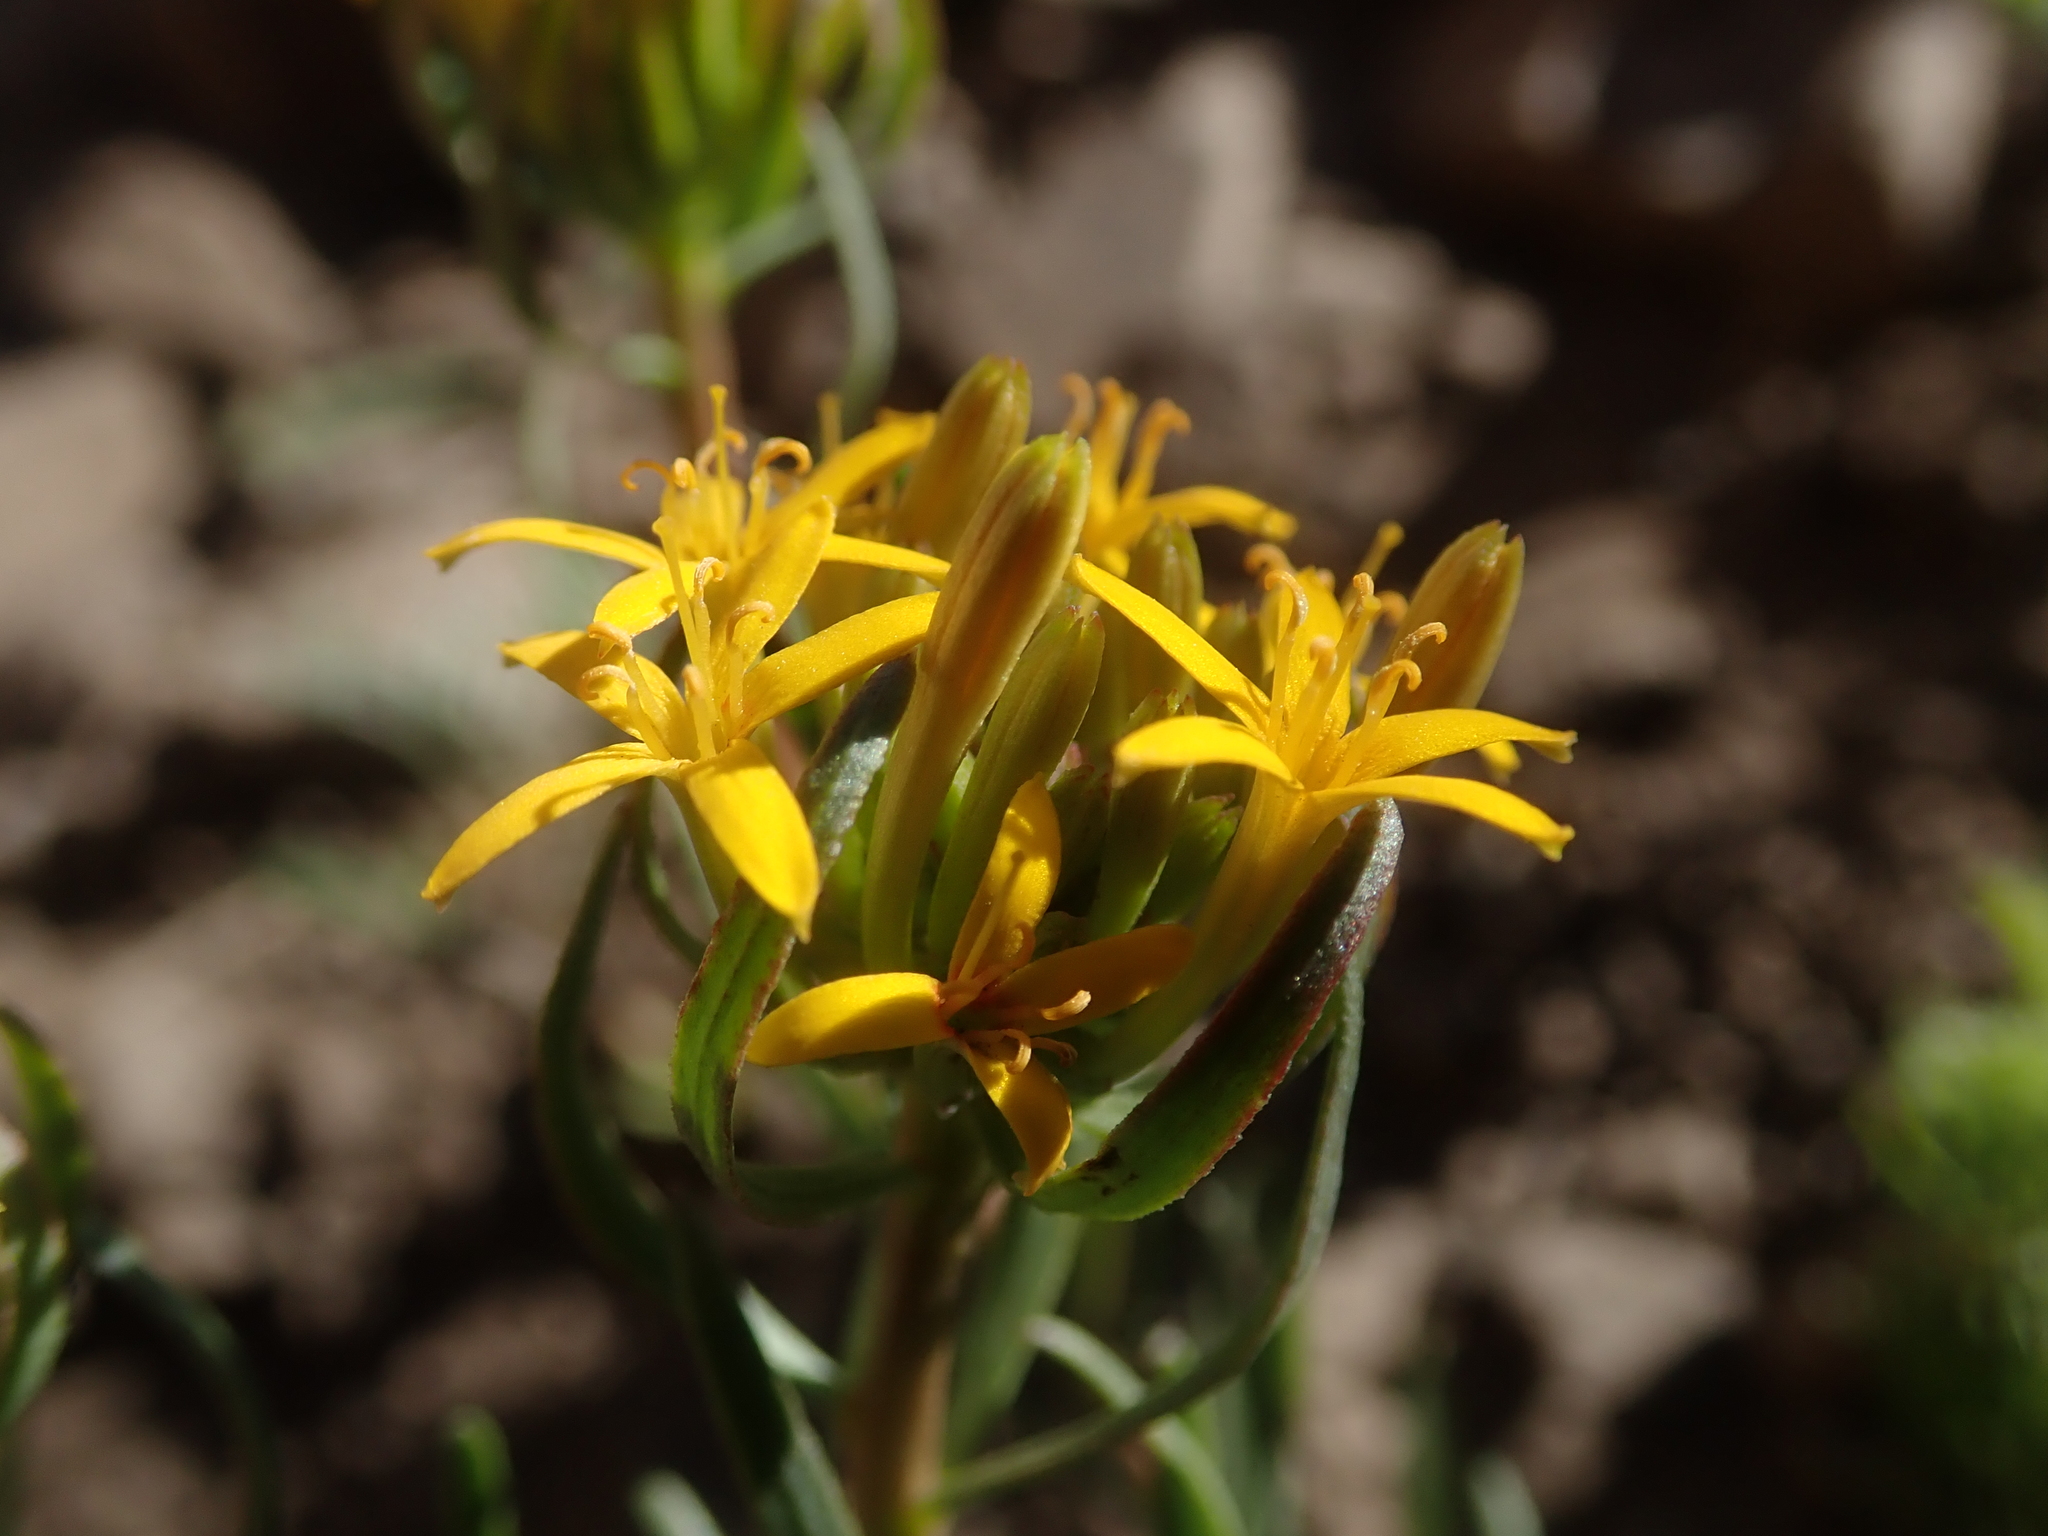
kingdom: Plantae
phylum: Tracheophyta
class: Magnoliopsida
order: Santalales
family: Schoepfiaceae
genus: Quinchamalium
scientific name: Quinchamalium chilense
